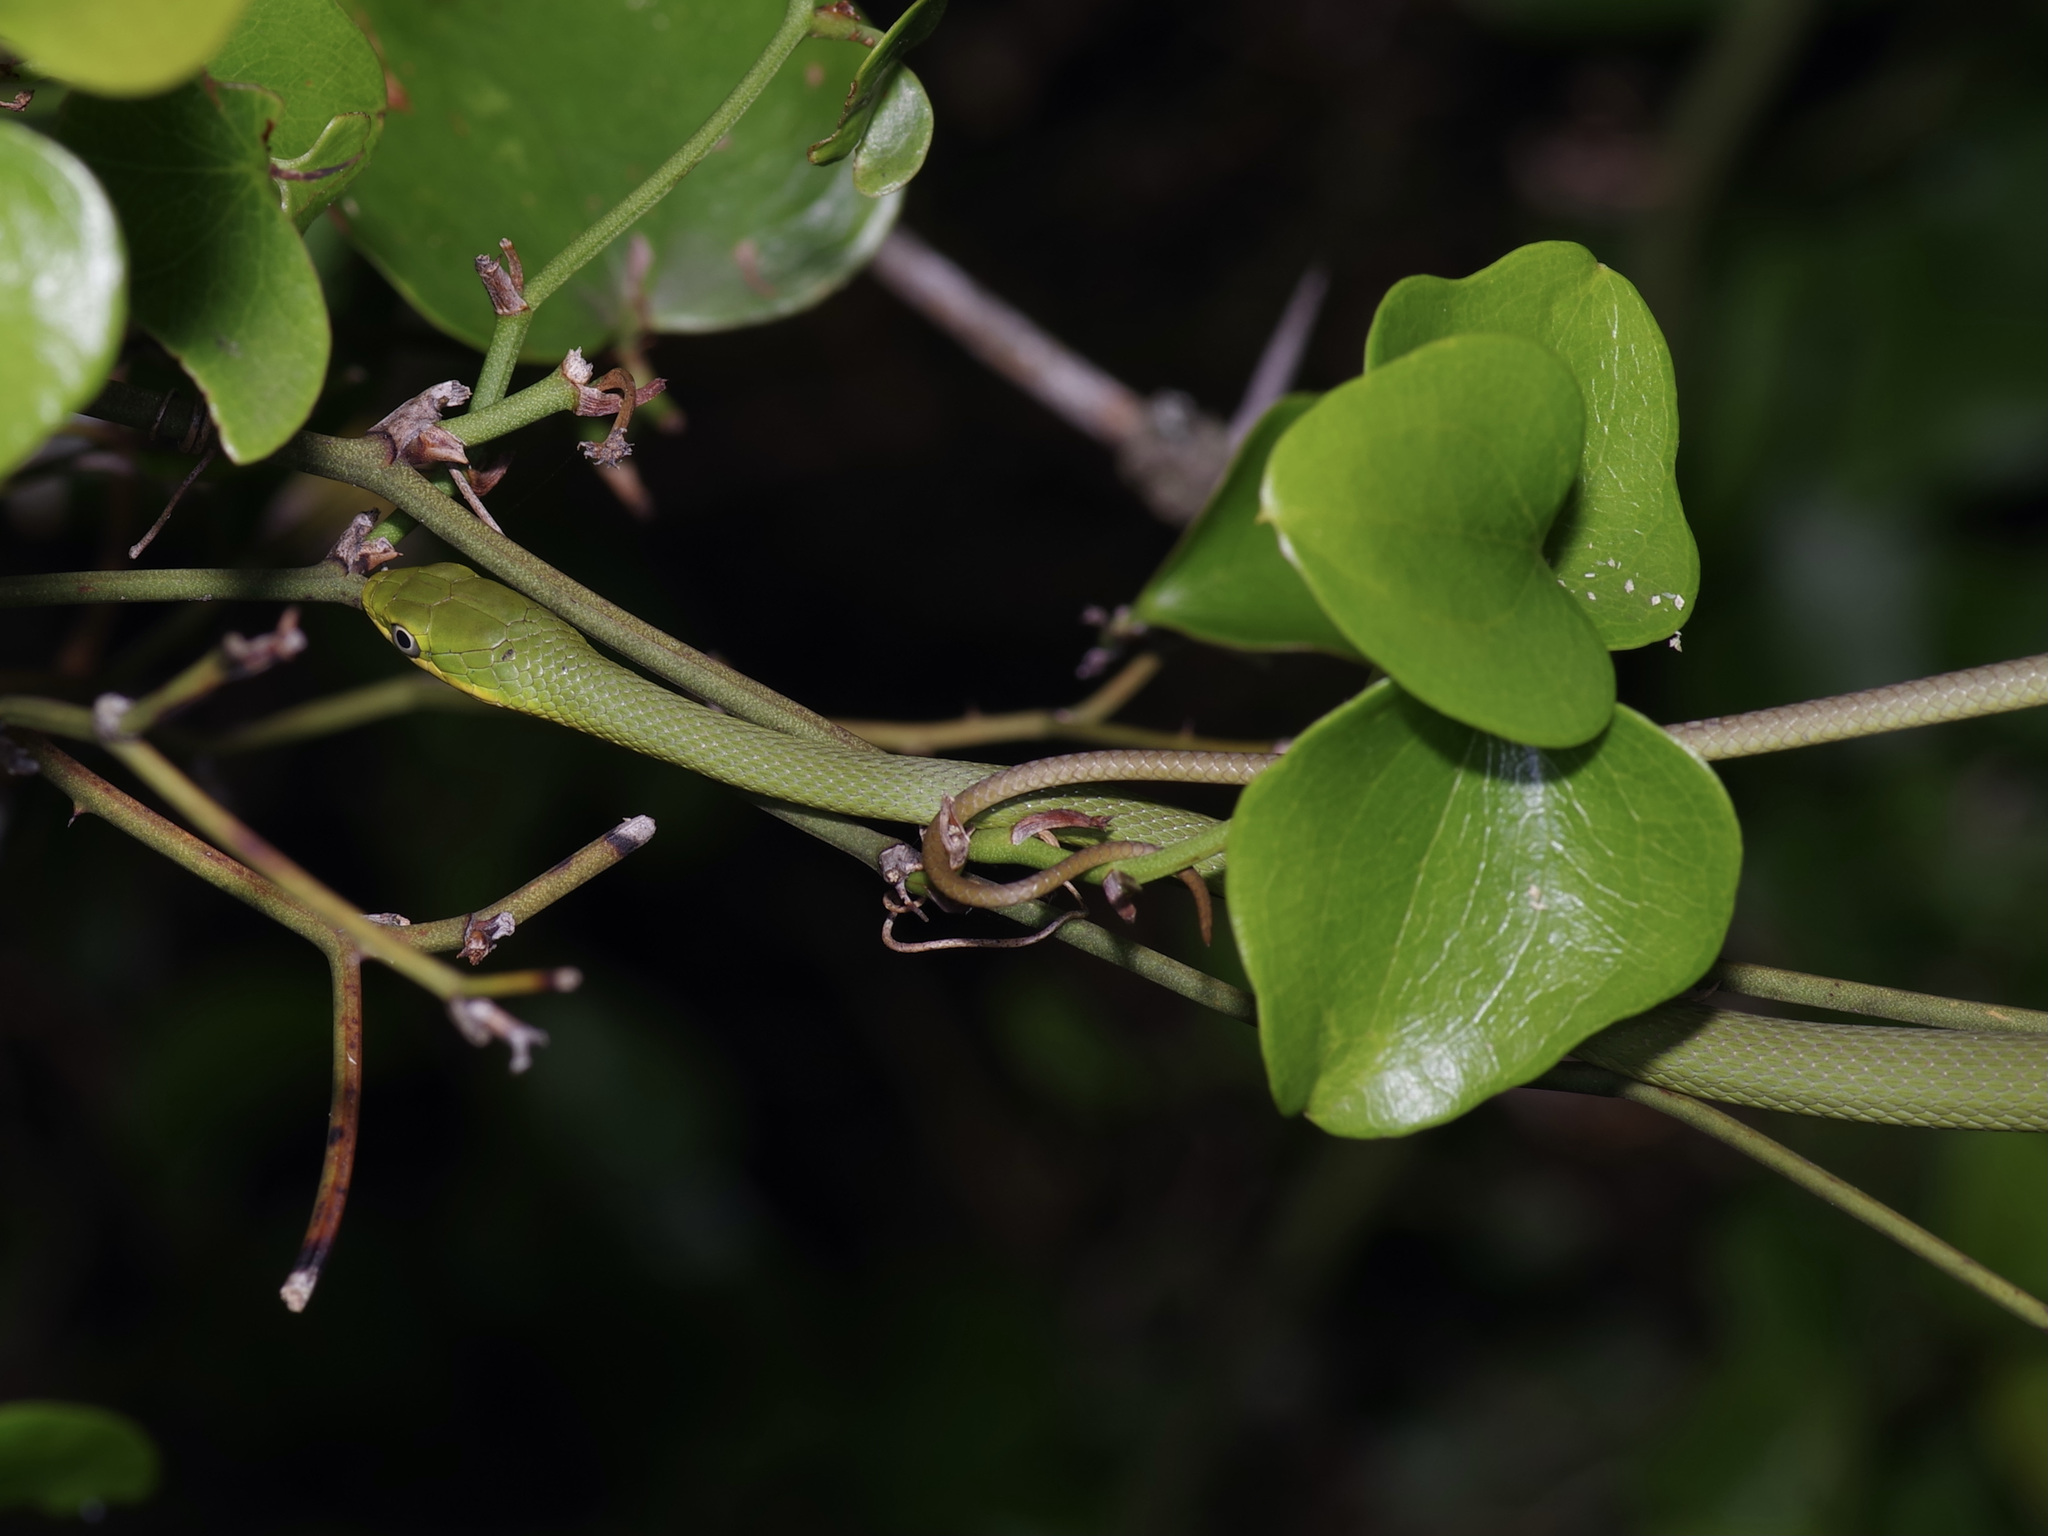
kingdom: Animalia
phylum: Chordata
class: Squamata
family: Colubridae
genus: Opheodrys
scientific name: Opheodrys aestivus
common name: Rough greensnake
